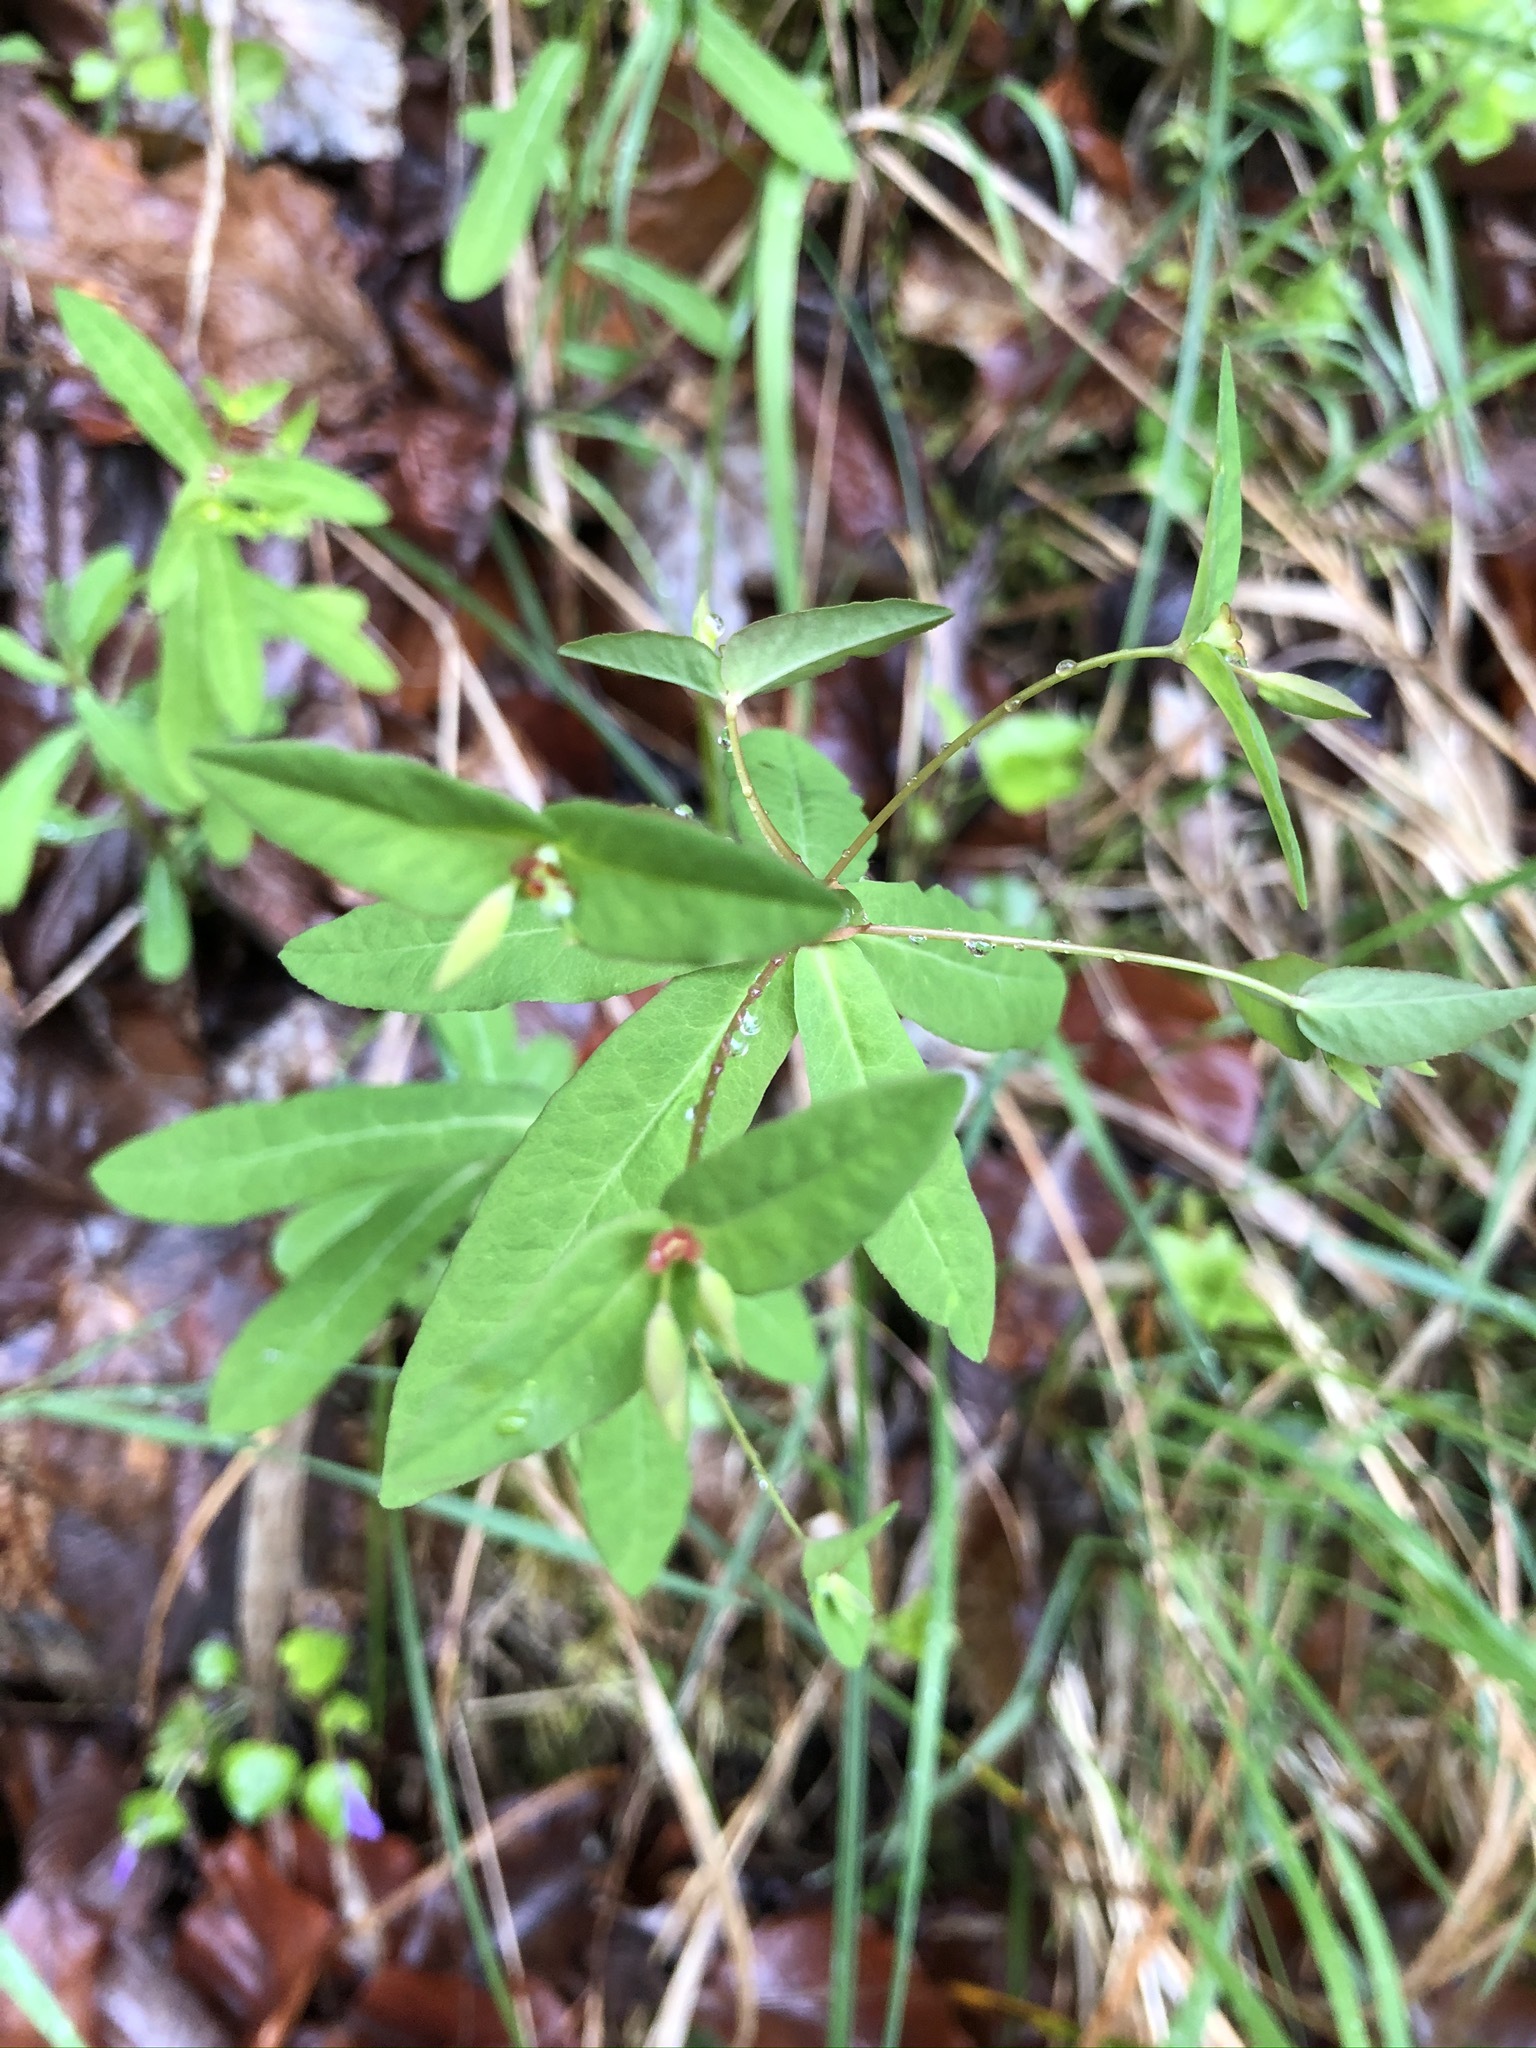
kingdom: Plantae
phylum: Tracheophyta
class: Magnoliopsida
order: Malpighiales
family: Euphorbiaceae
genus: Euphorbia
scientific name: Euphorbia dulcis
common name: Sweet spurge
